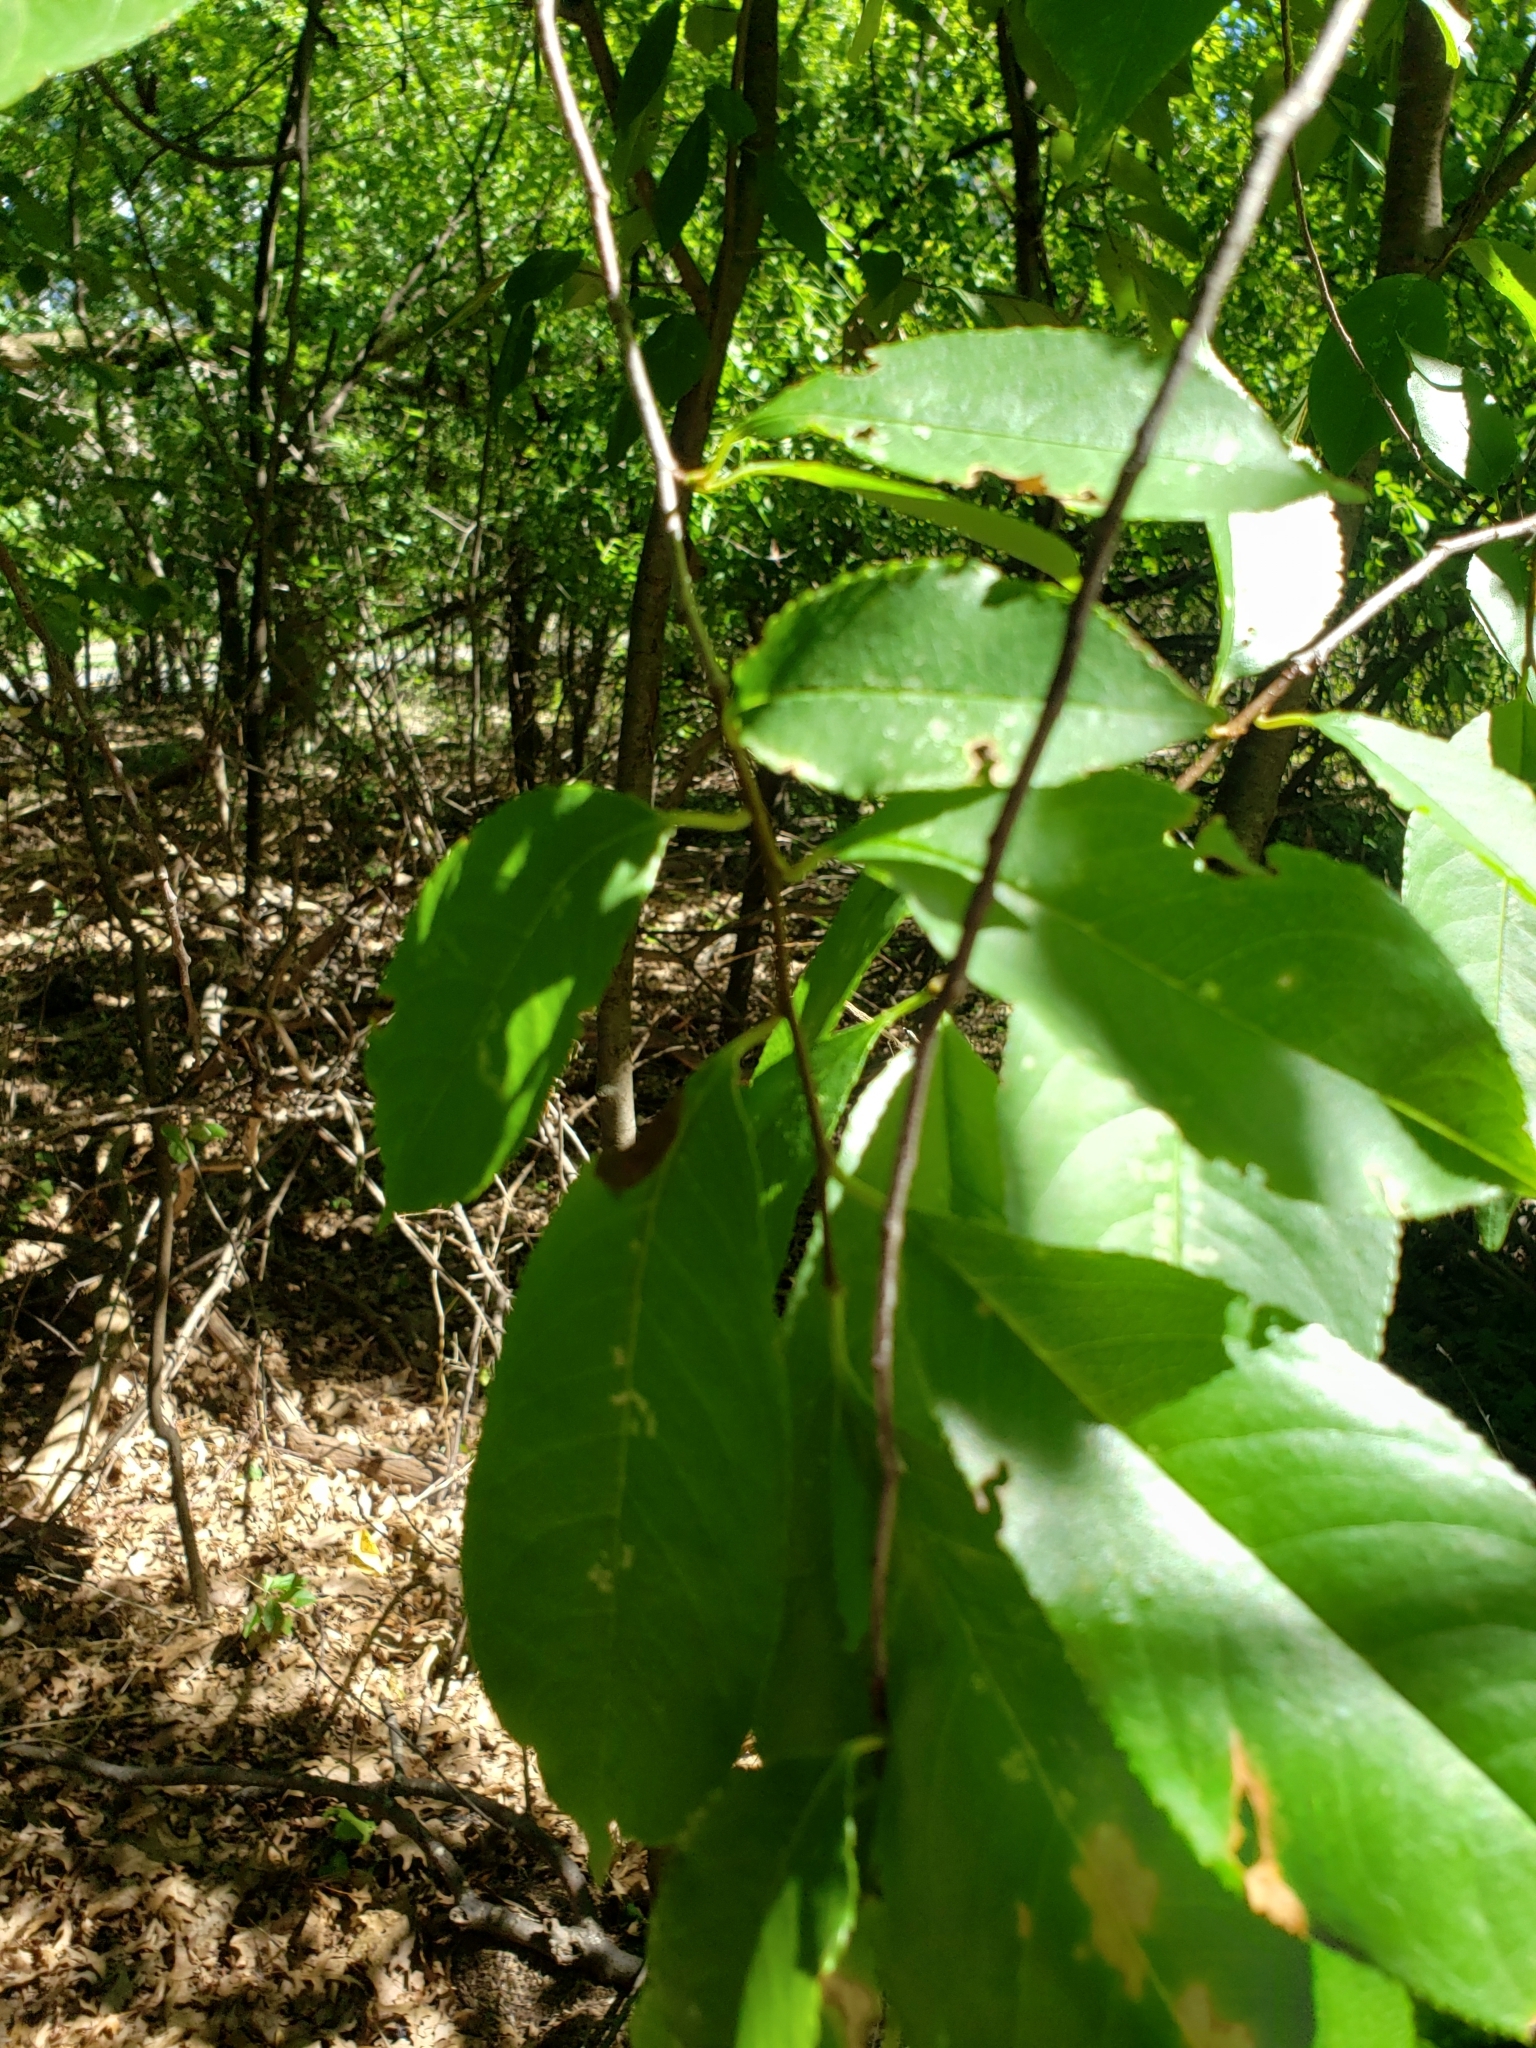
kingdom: Plantae
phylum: Tracheophyta
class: Magnoliopsida
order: Rosales
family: Rosaceae
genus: Prunus
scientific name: Prunus serotina
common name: Black cherry
